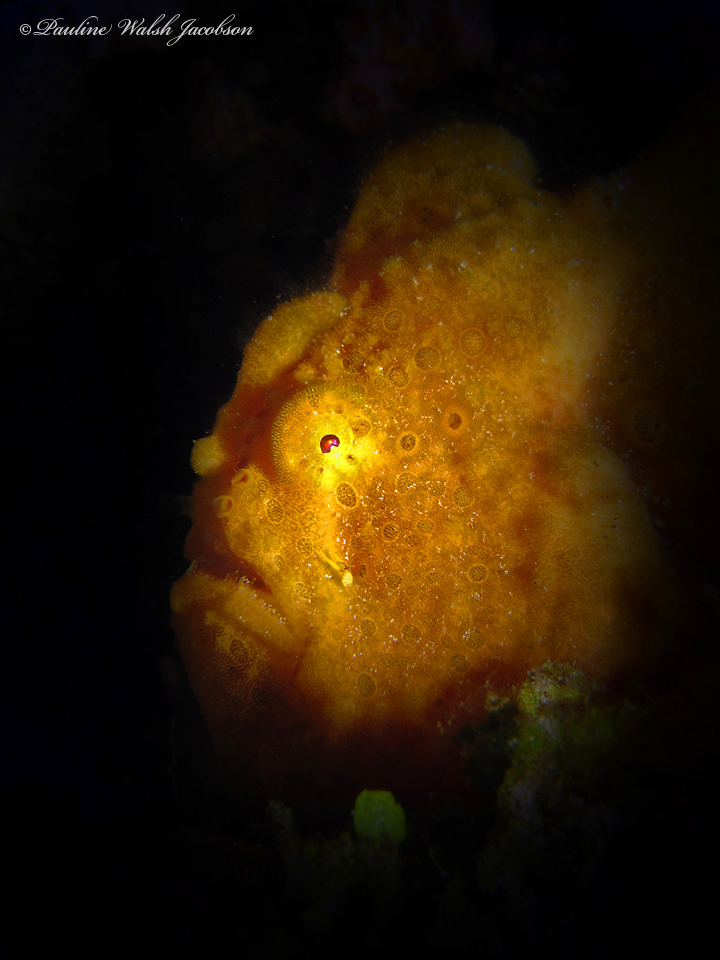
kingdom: Animalia
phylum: Chordata
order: Lophiiformes
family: Antennariidae
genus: Antennarius
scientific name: Antennarius pictus
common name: Painted frogfish
